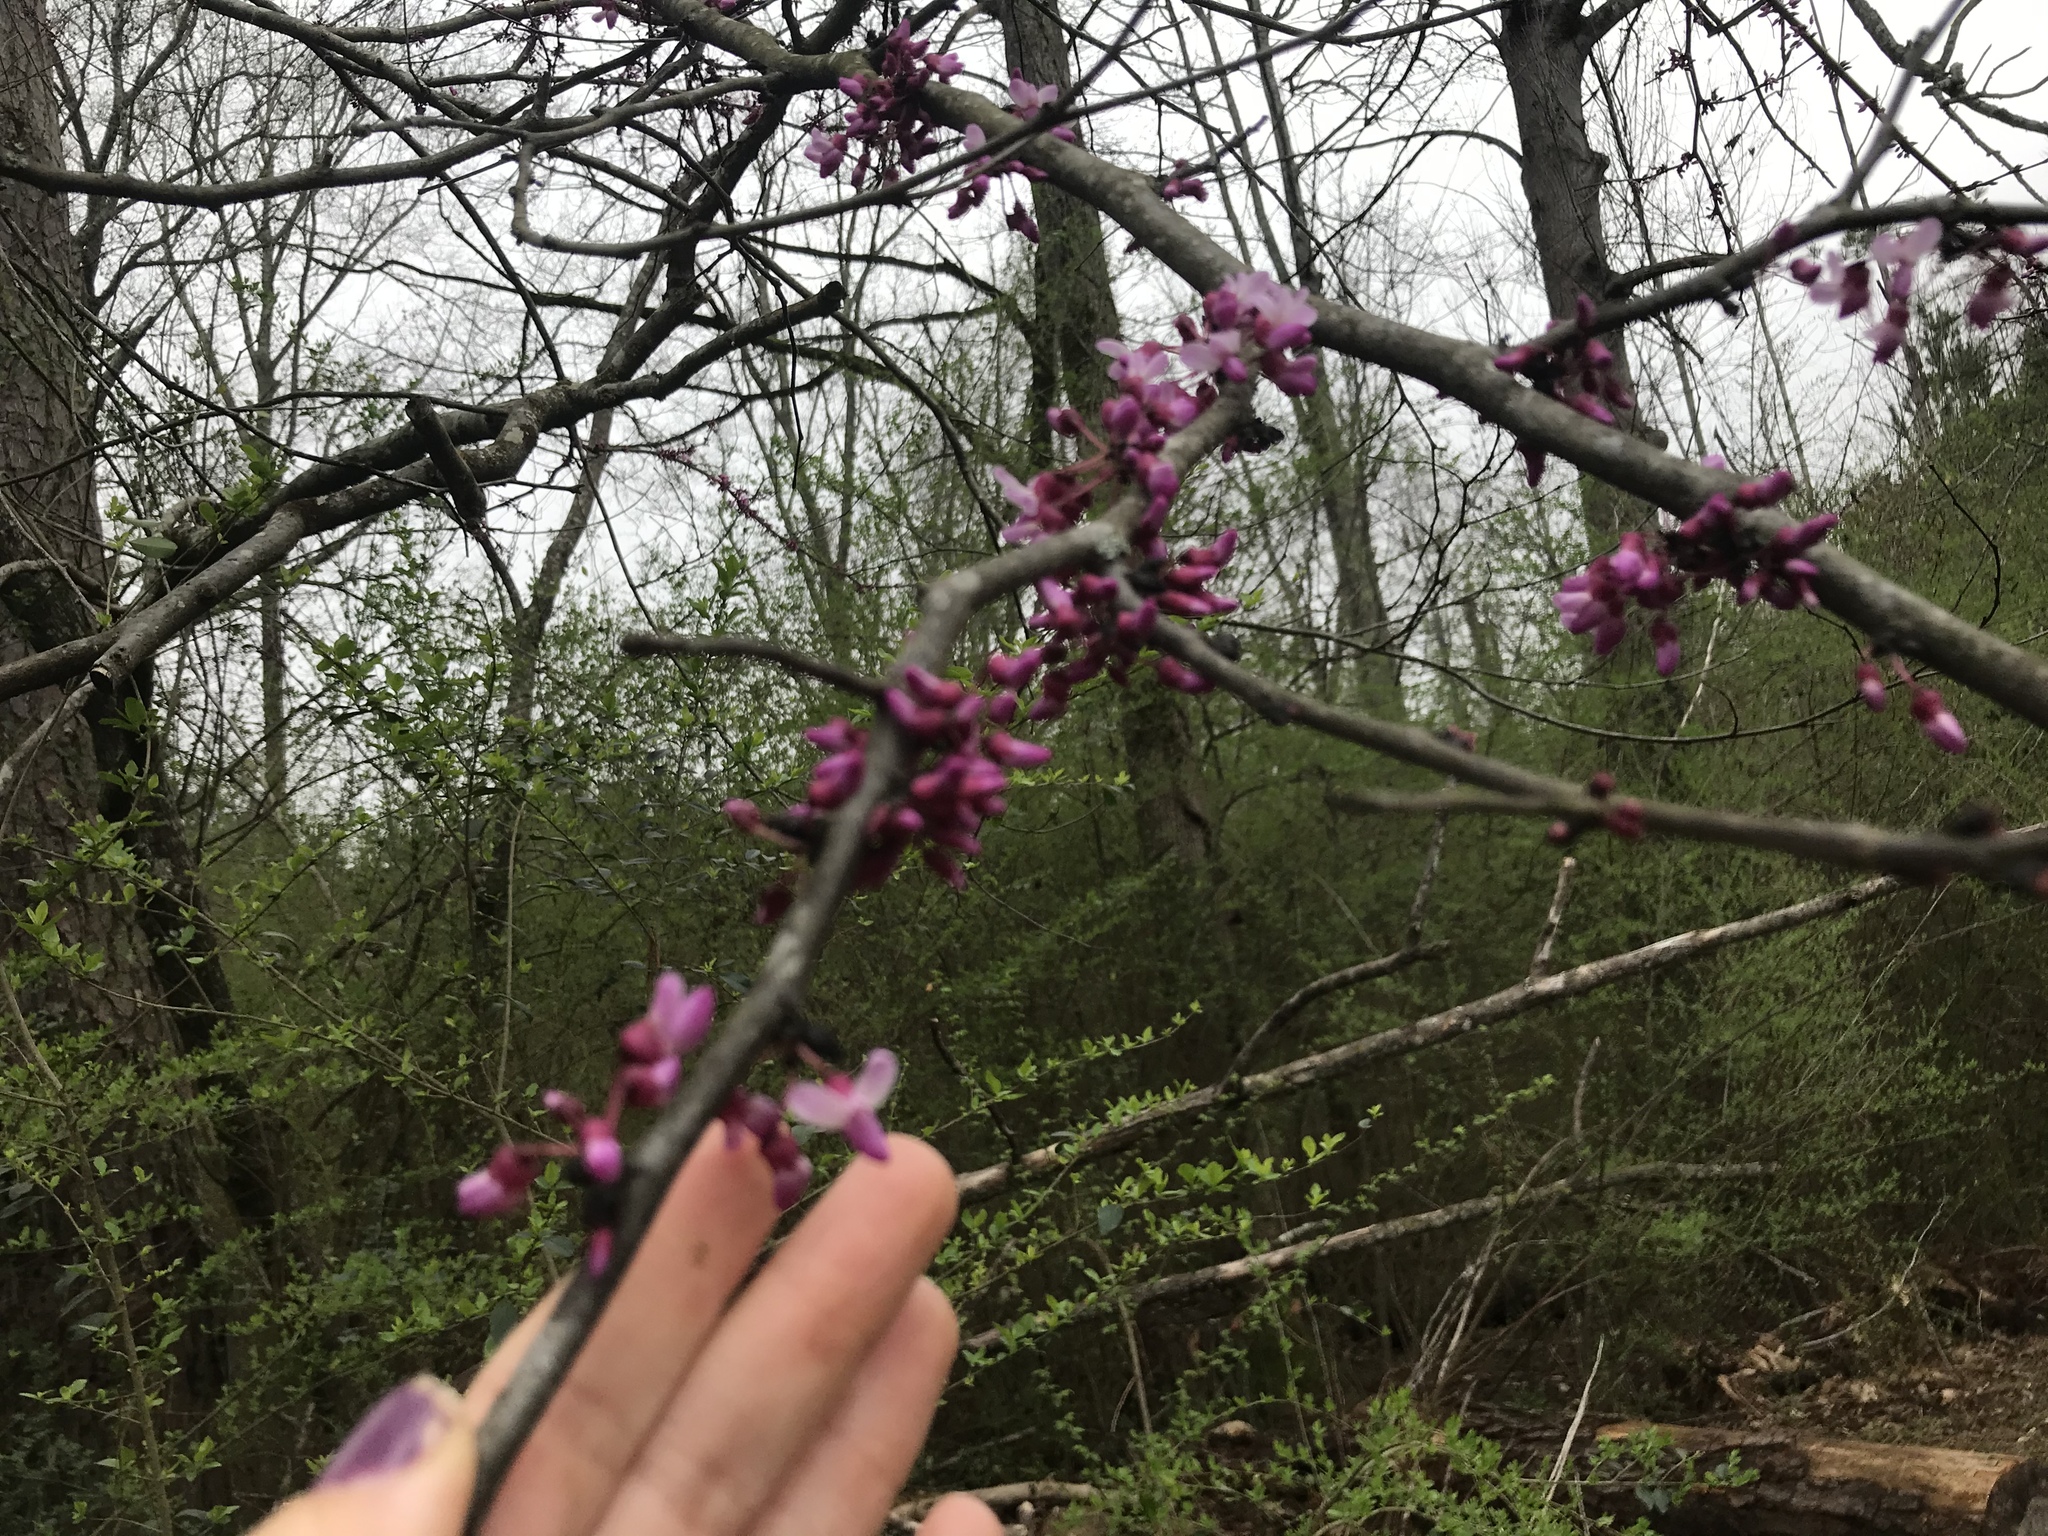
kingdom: Plantae
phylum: Tracheophyta
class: Magnoliopsida
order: Fabales
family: Fabaceae
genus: Cercis
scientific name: Cercis canadensis
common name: Eastern redbud
